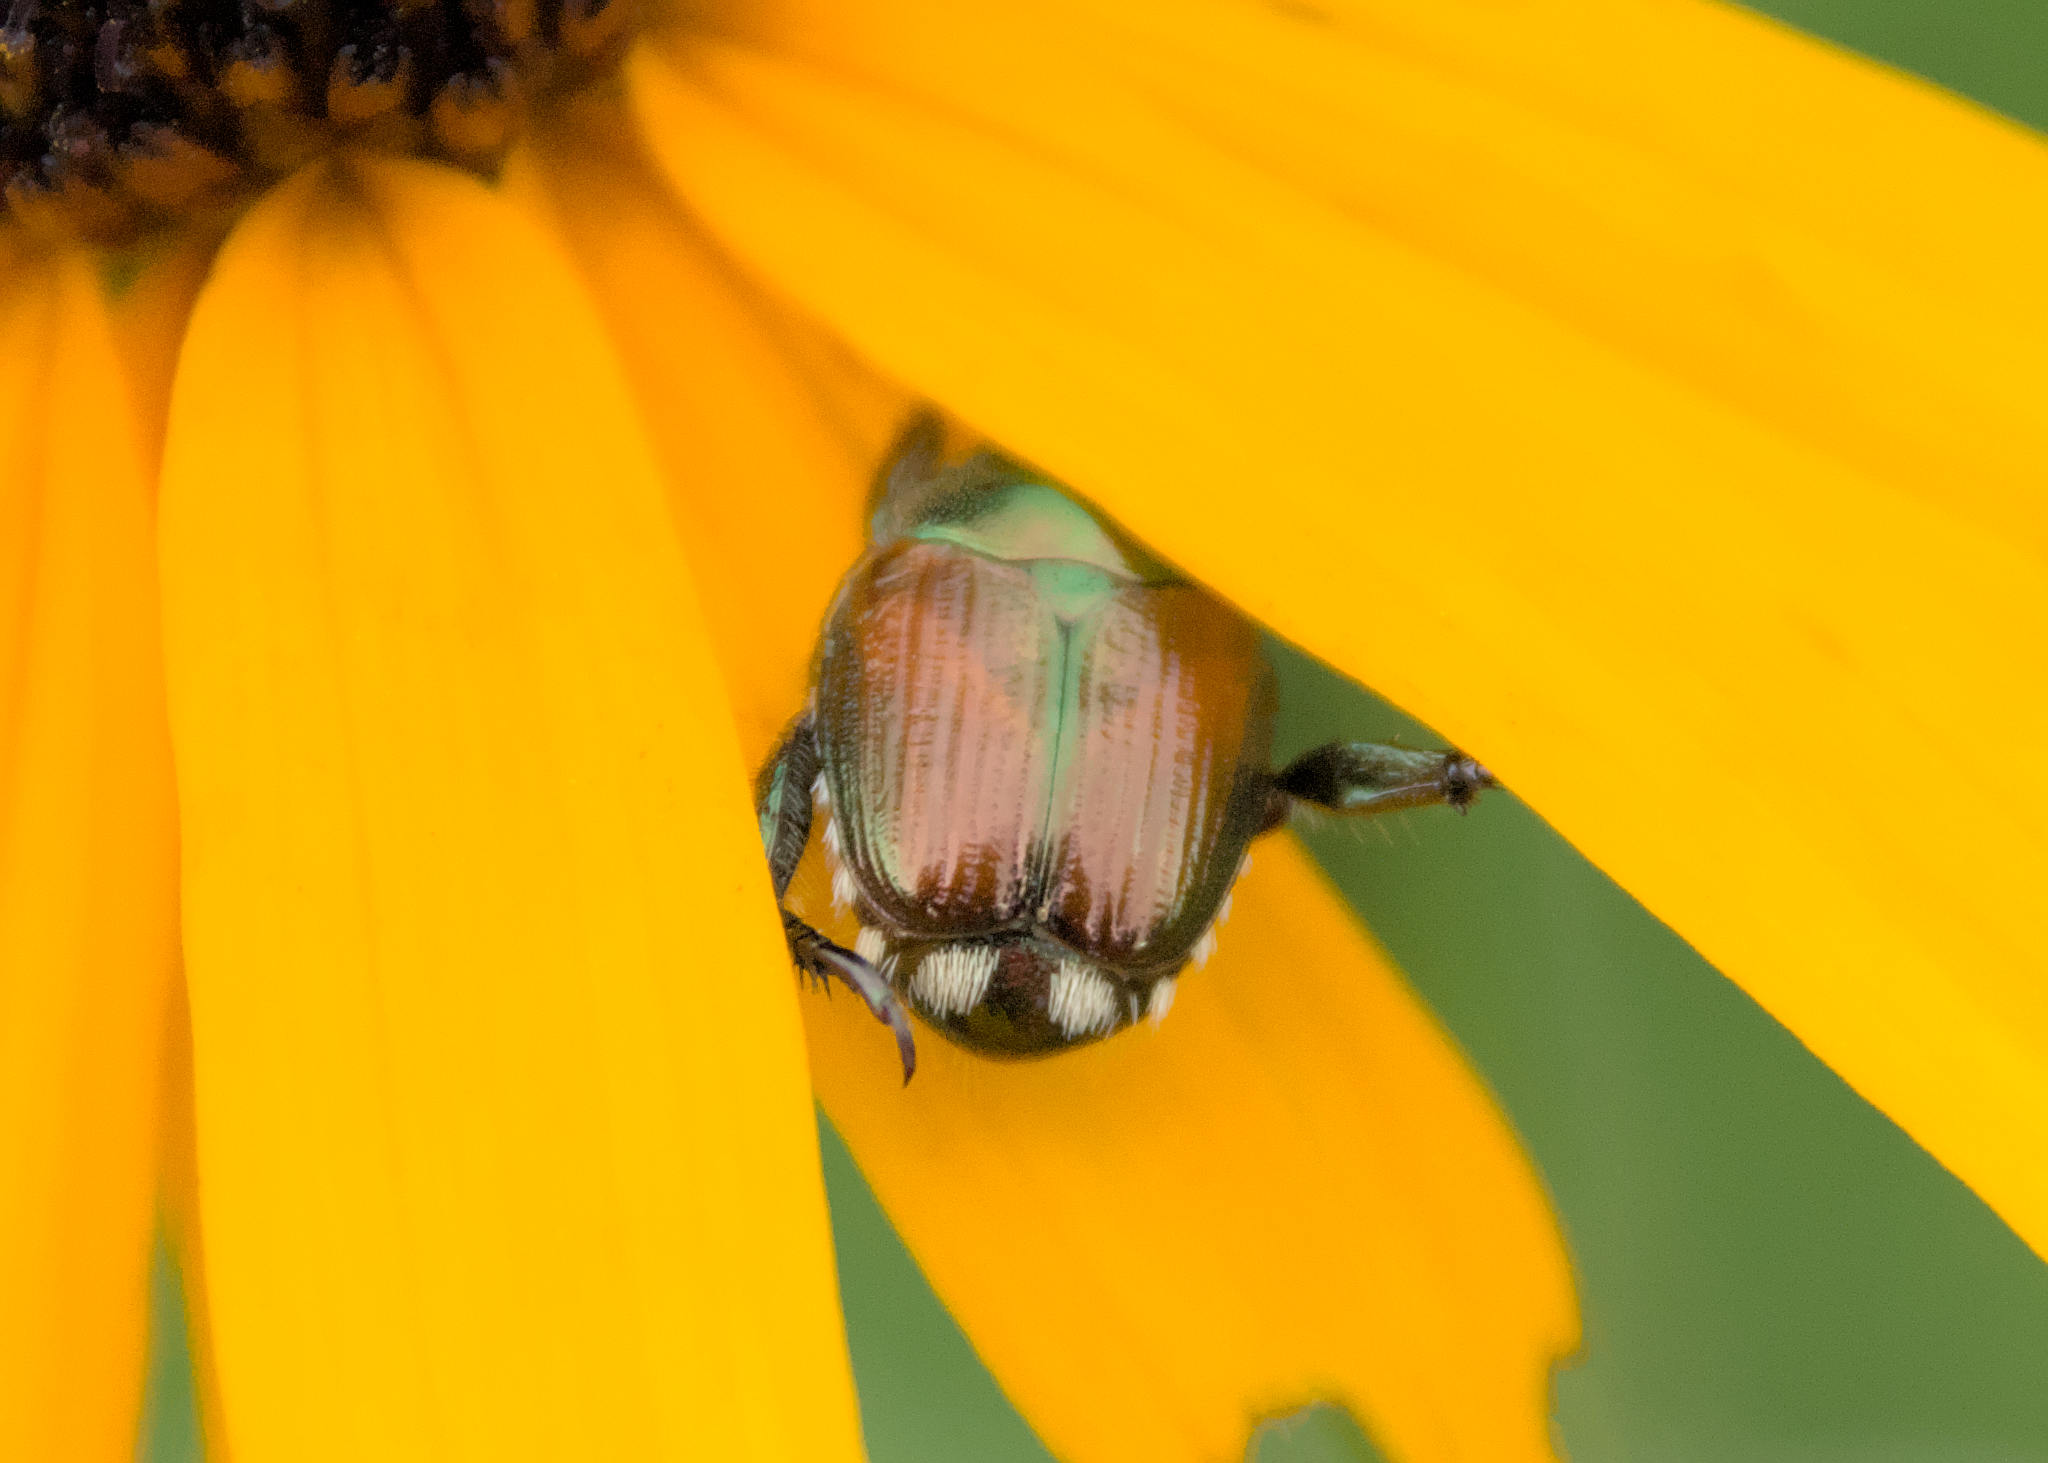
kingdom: Animalia
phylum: Arthropoda
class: Insecta
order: Coleoptera
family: Scarabaeidae
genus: Popillia
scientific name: Popillia japonica
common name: Japanese beetle
